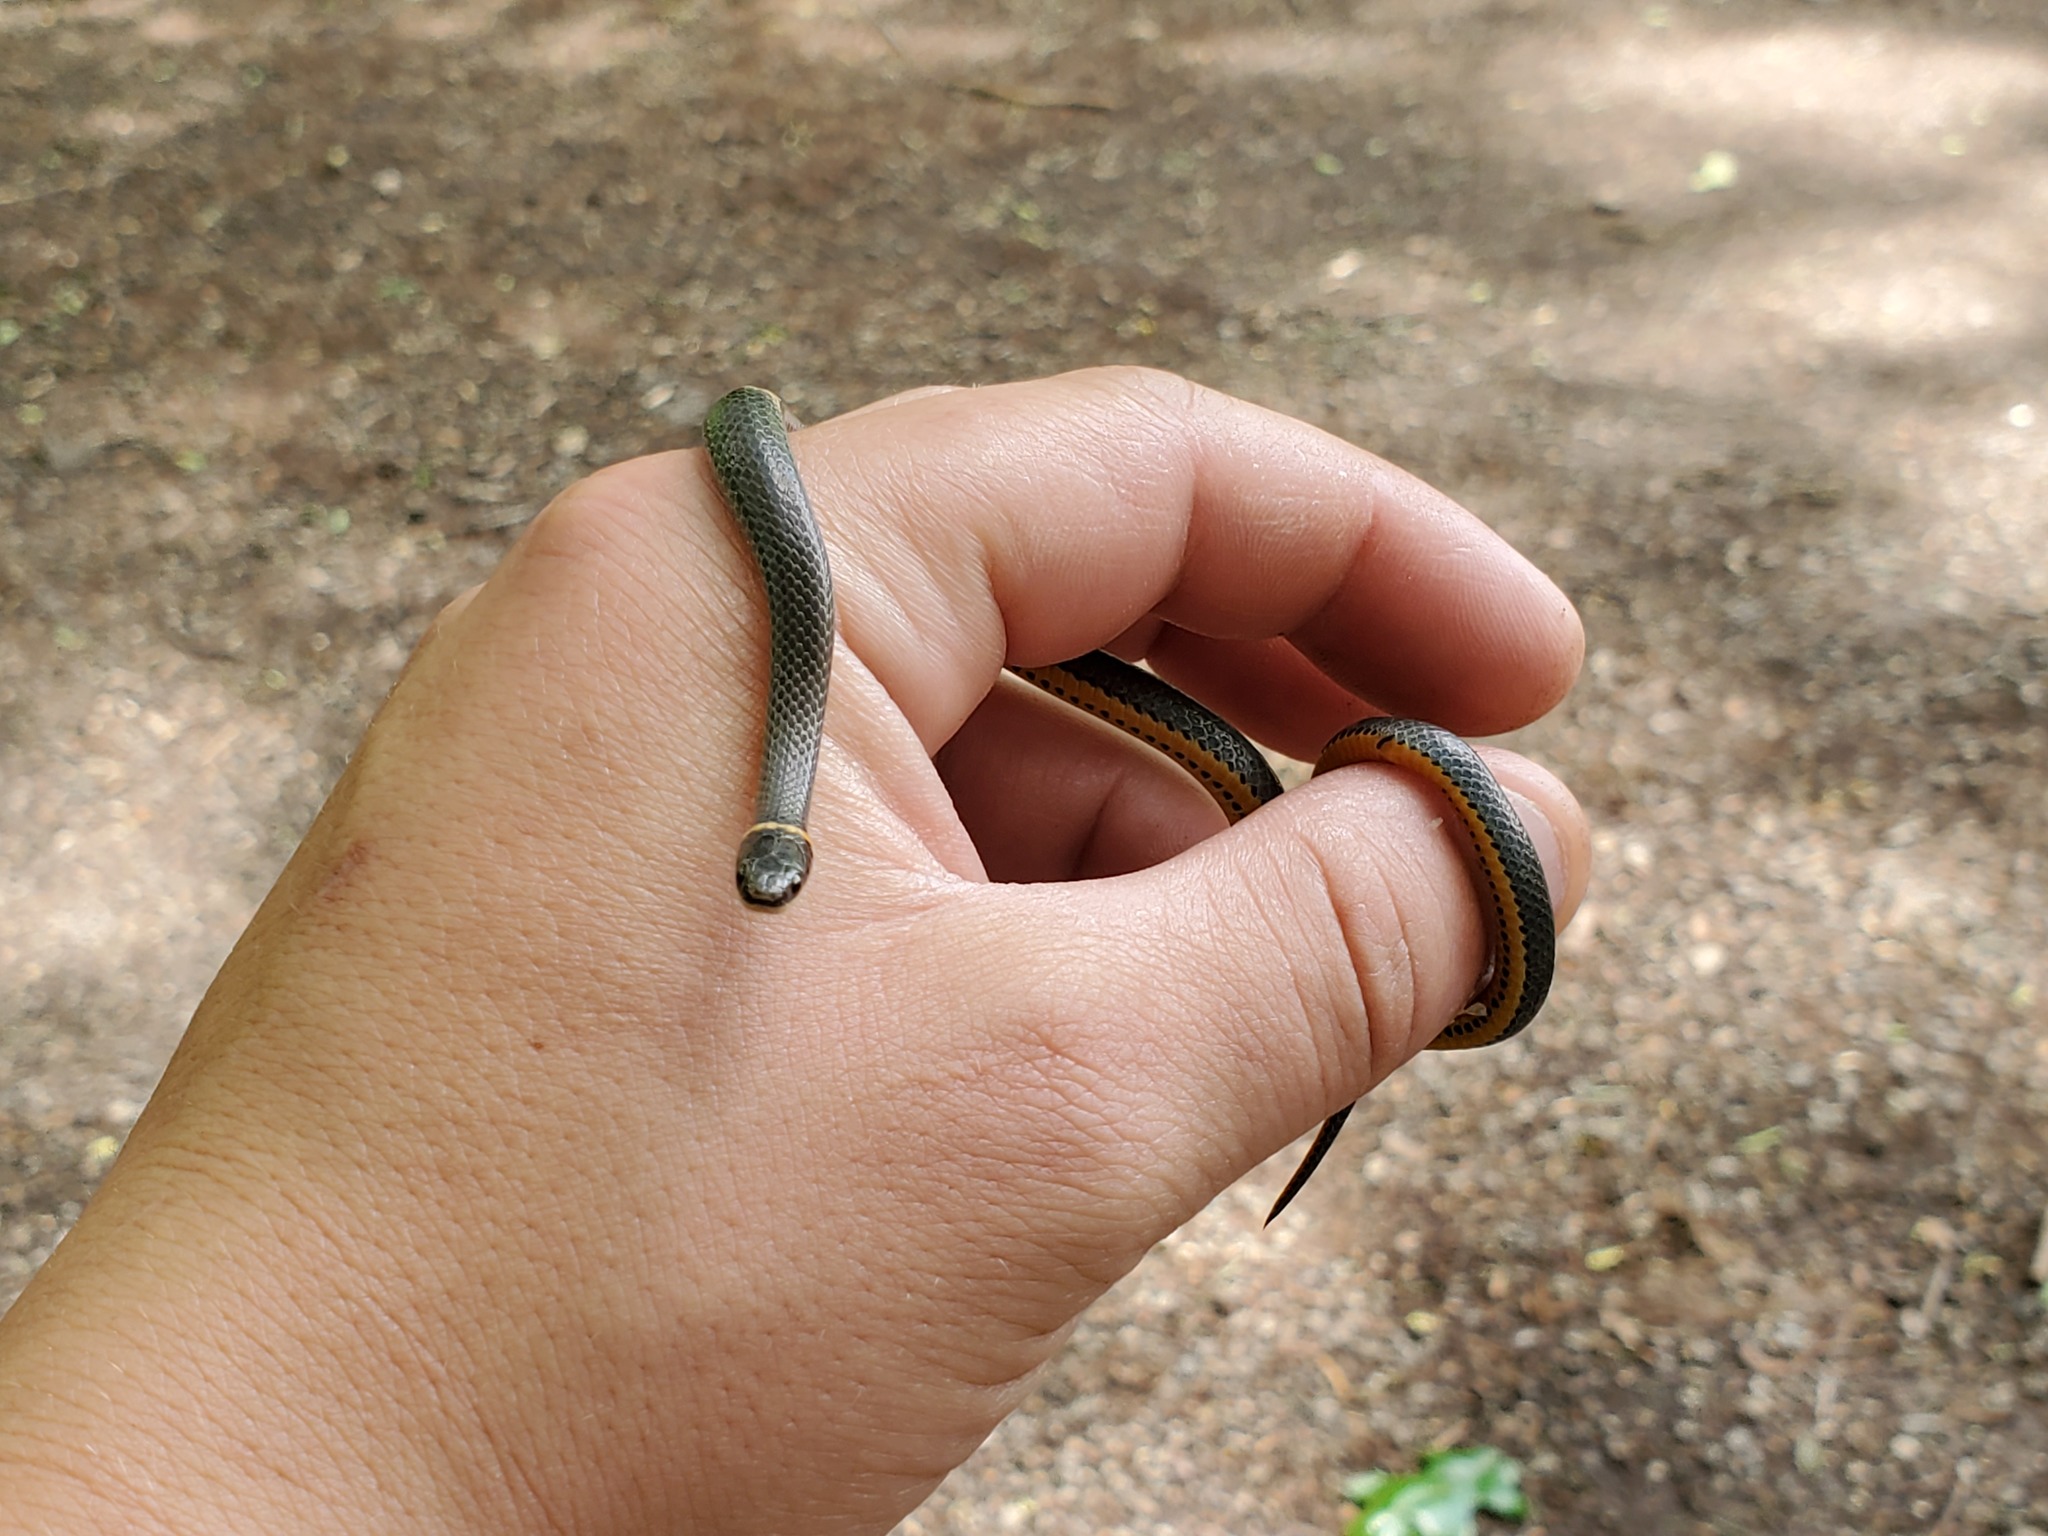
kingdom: Animalia
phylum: Chordata
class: Squamata
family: Colubridae
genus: Diadophis
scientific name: Diadophis punctatus
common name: Ringneck snake
